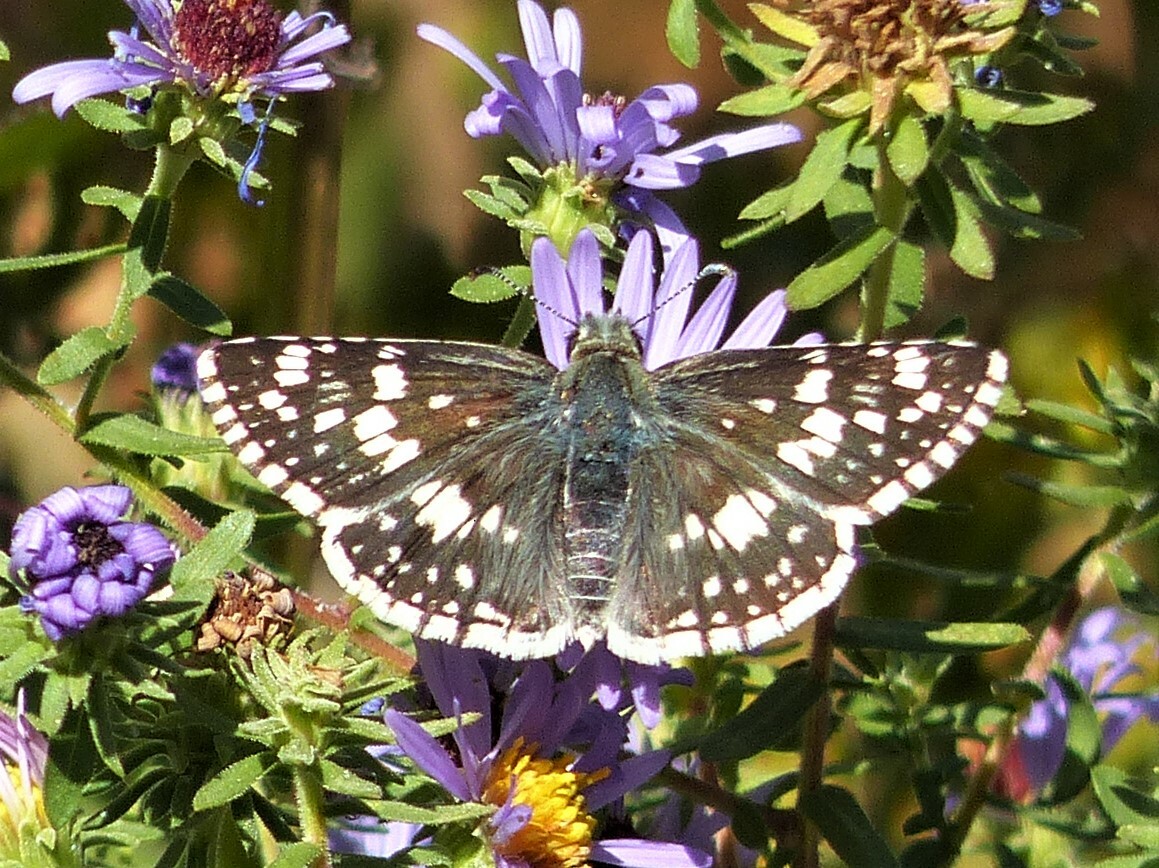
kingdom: Animalia
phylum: Arthropoda
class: Insecta
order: Lepidoptera
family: Hesperiidae
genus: Burnsius
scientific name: Burnsius communis
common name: Common checkered-skipper
